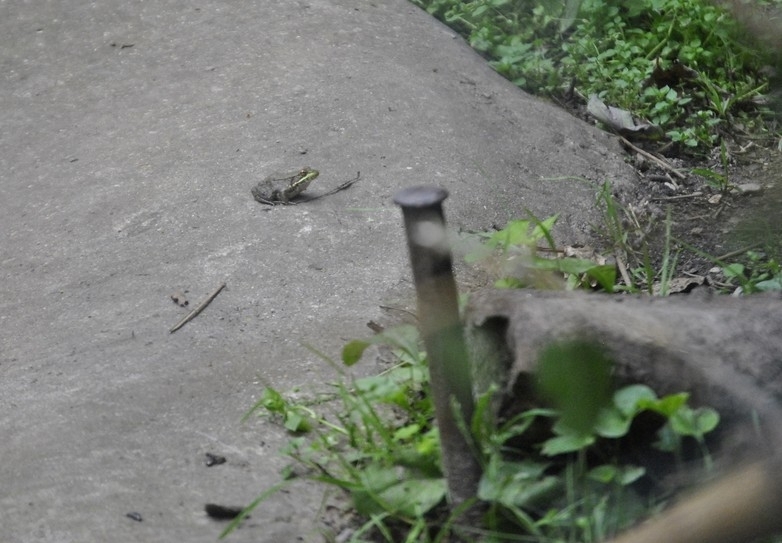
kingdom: Animalia
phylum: Chordata
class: Amphibia
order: Anura
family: Ranidae
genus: Lithobates
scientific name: Lithobates clamitans
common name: Green frog
